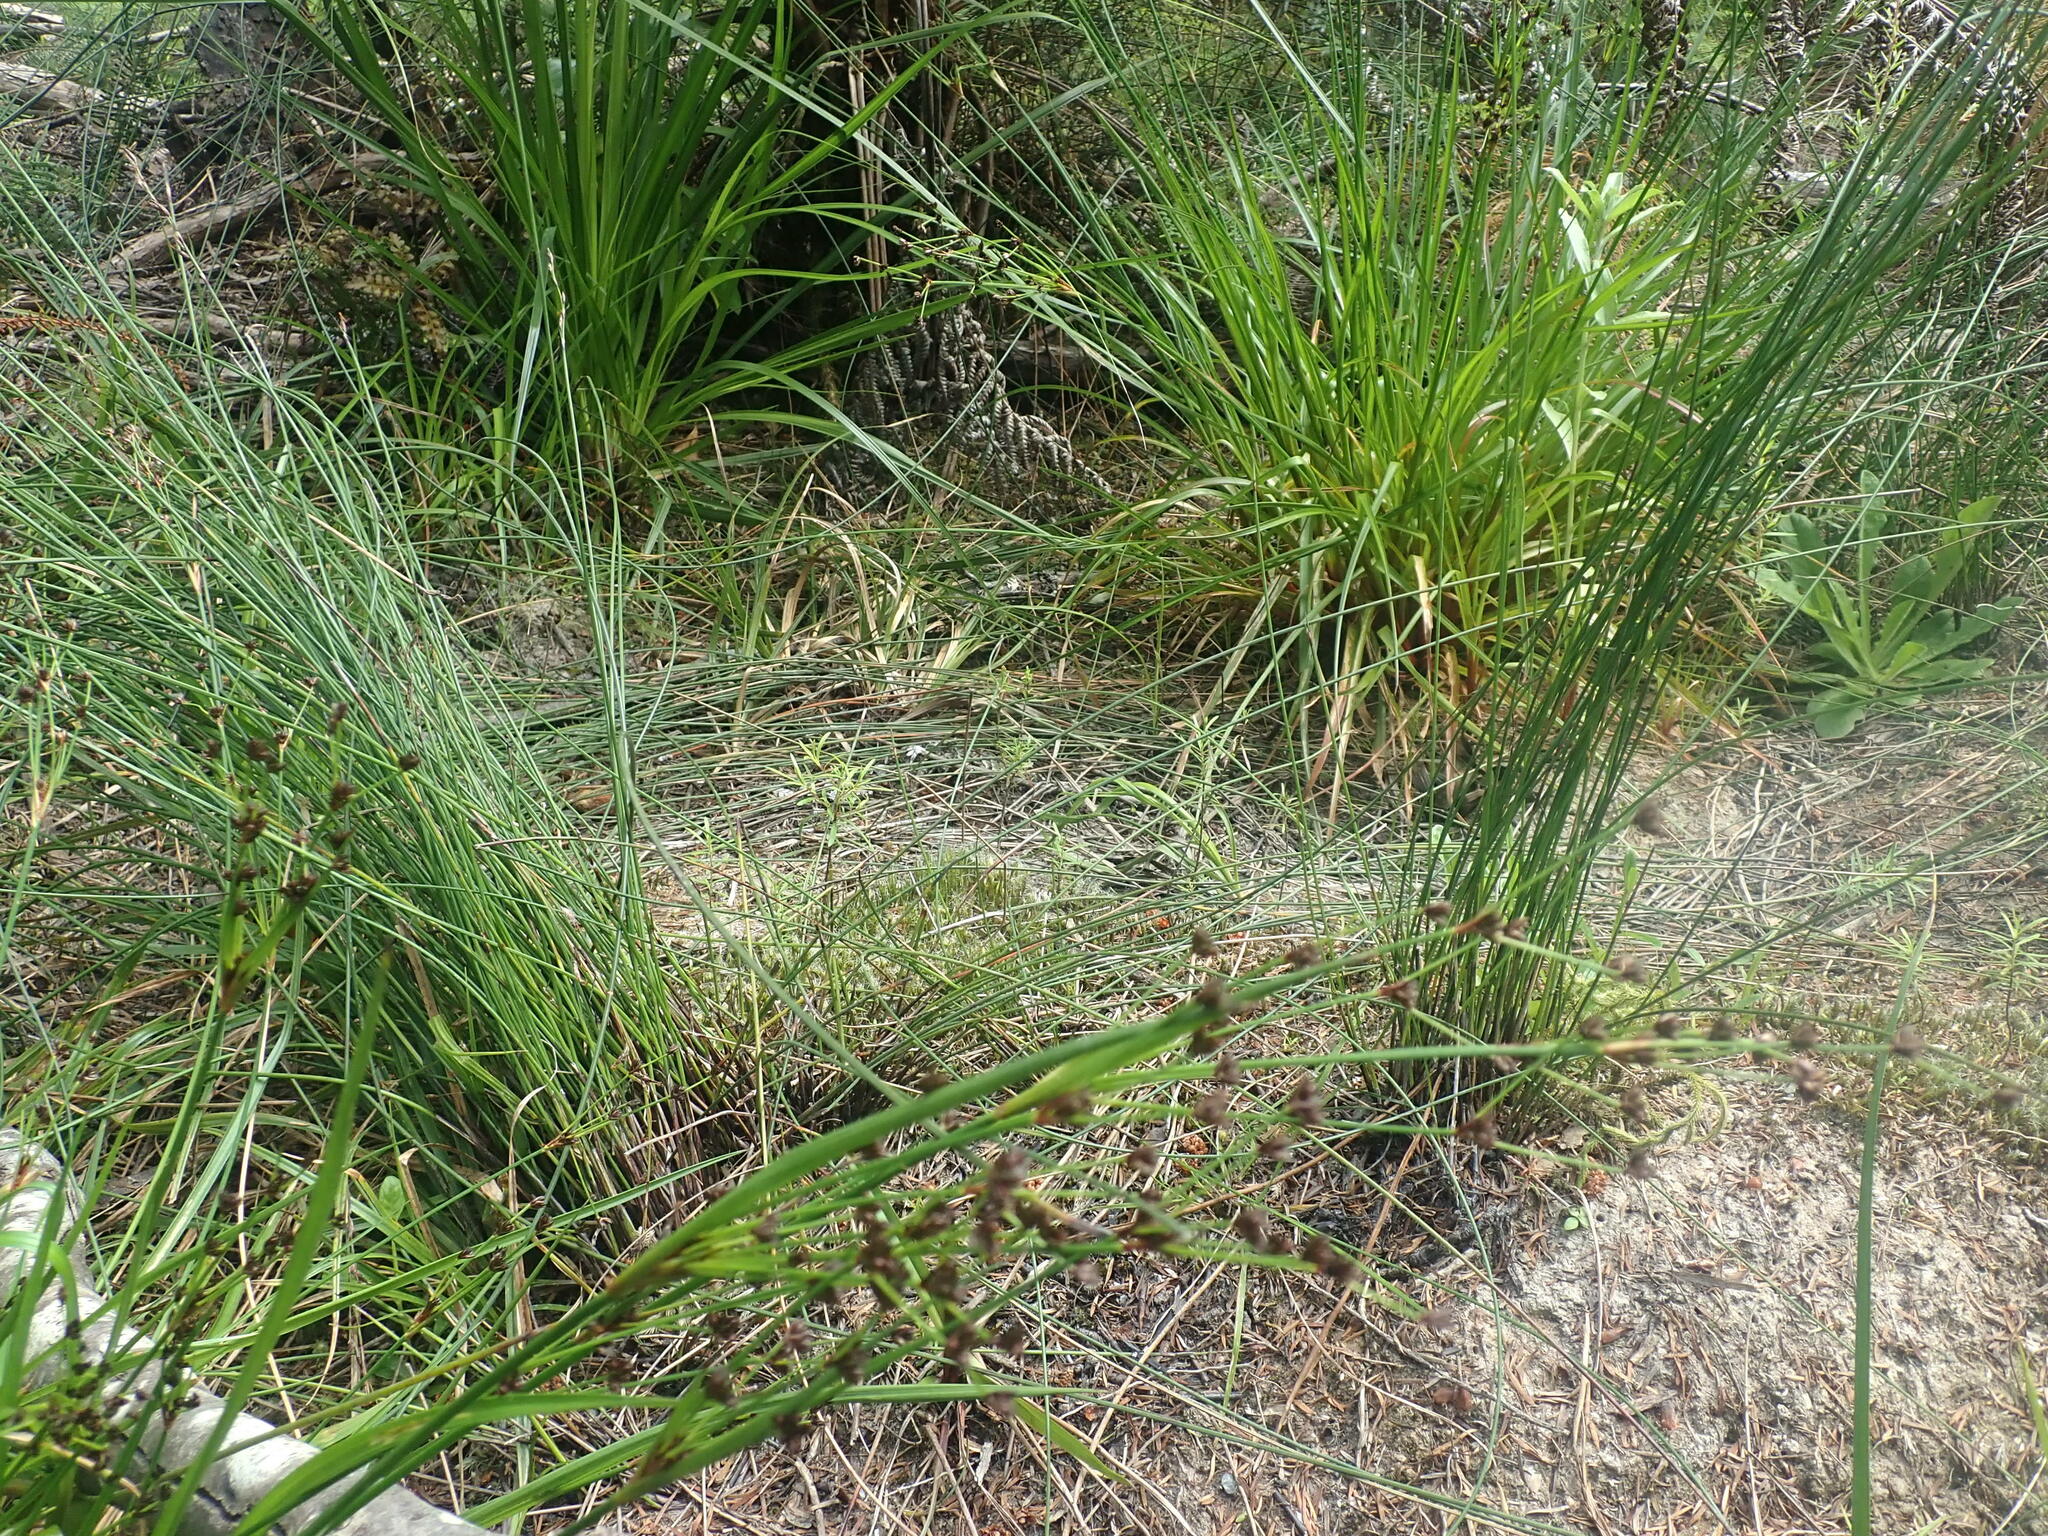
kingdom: Plantae
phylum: Tracheophyta
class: Liliopsida
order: Poales
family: Juncaceae
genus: Juncus
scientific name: Juncus articulatus
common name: Jointed rush
